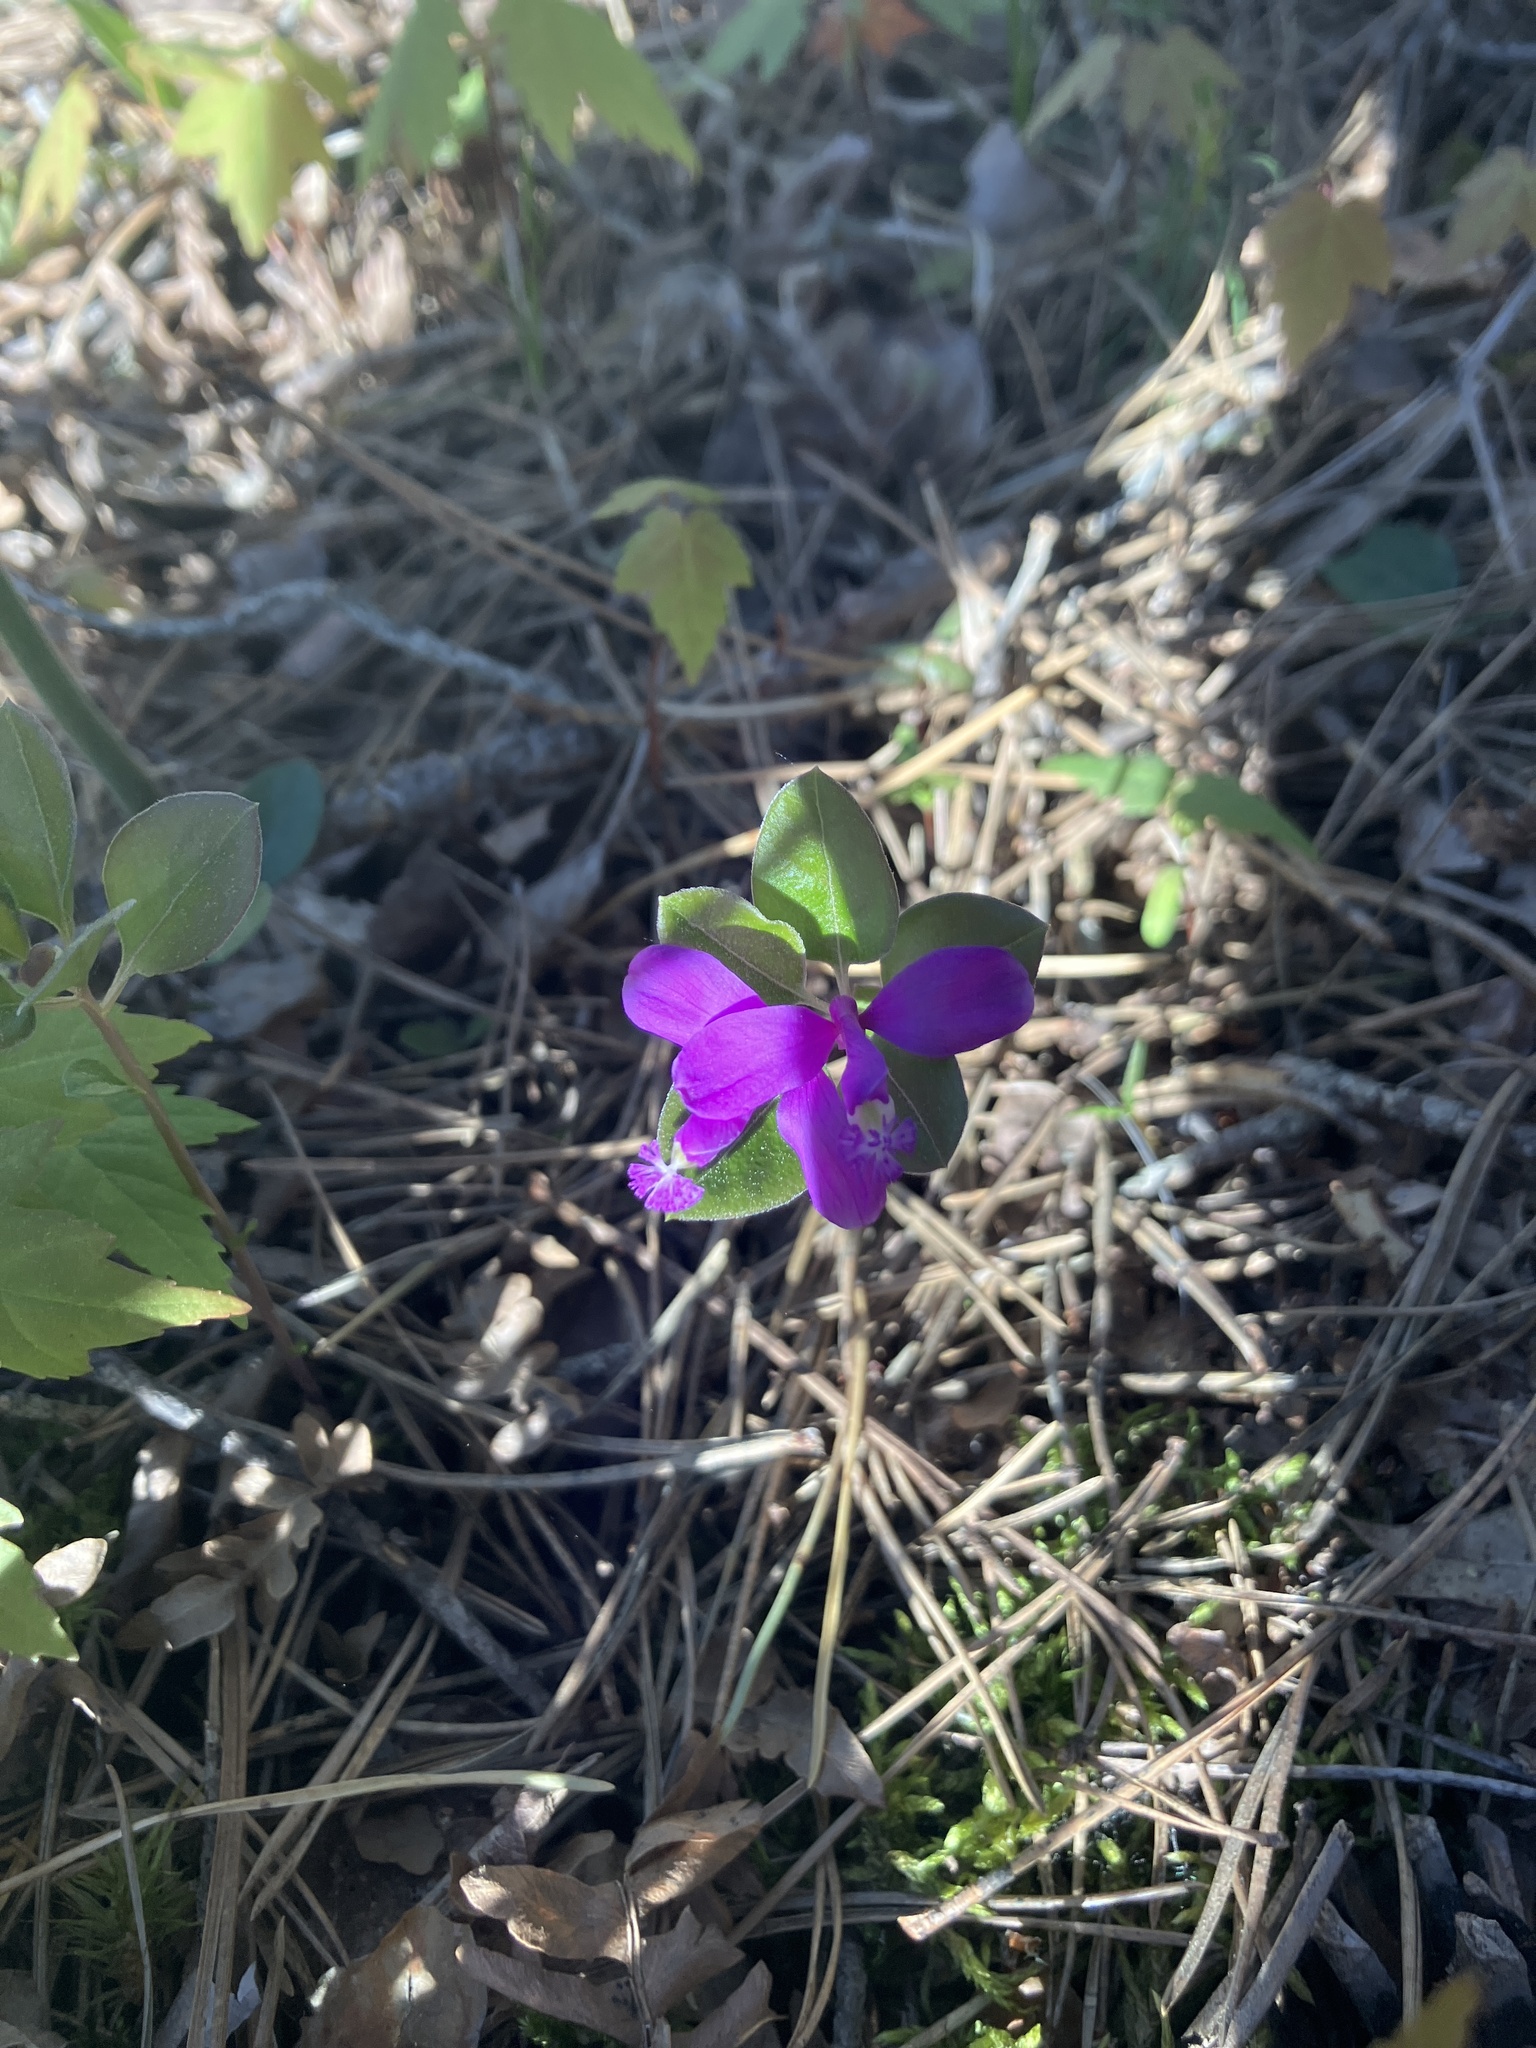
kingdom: Plantae
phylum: Tracheophyta
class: Magnoliopsida
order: Fabales
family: Polygalaceae
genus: Polygaloides
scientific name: Polygaloides paucifolia
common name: Bird-on-the-wing
